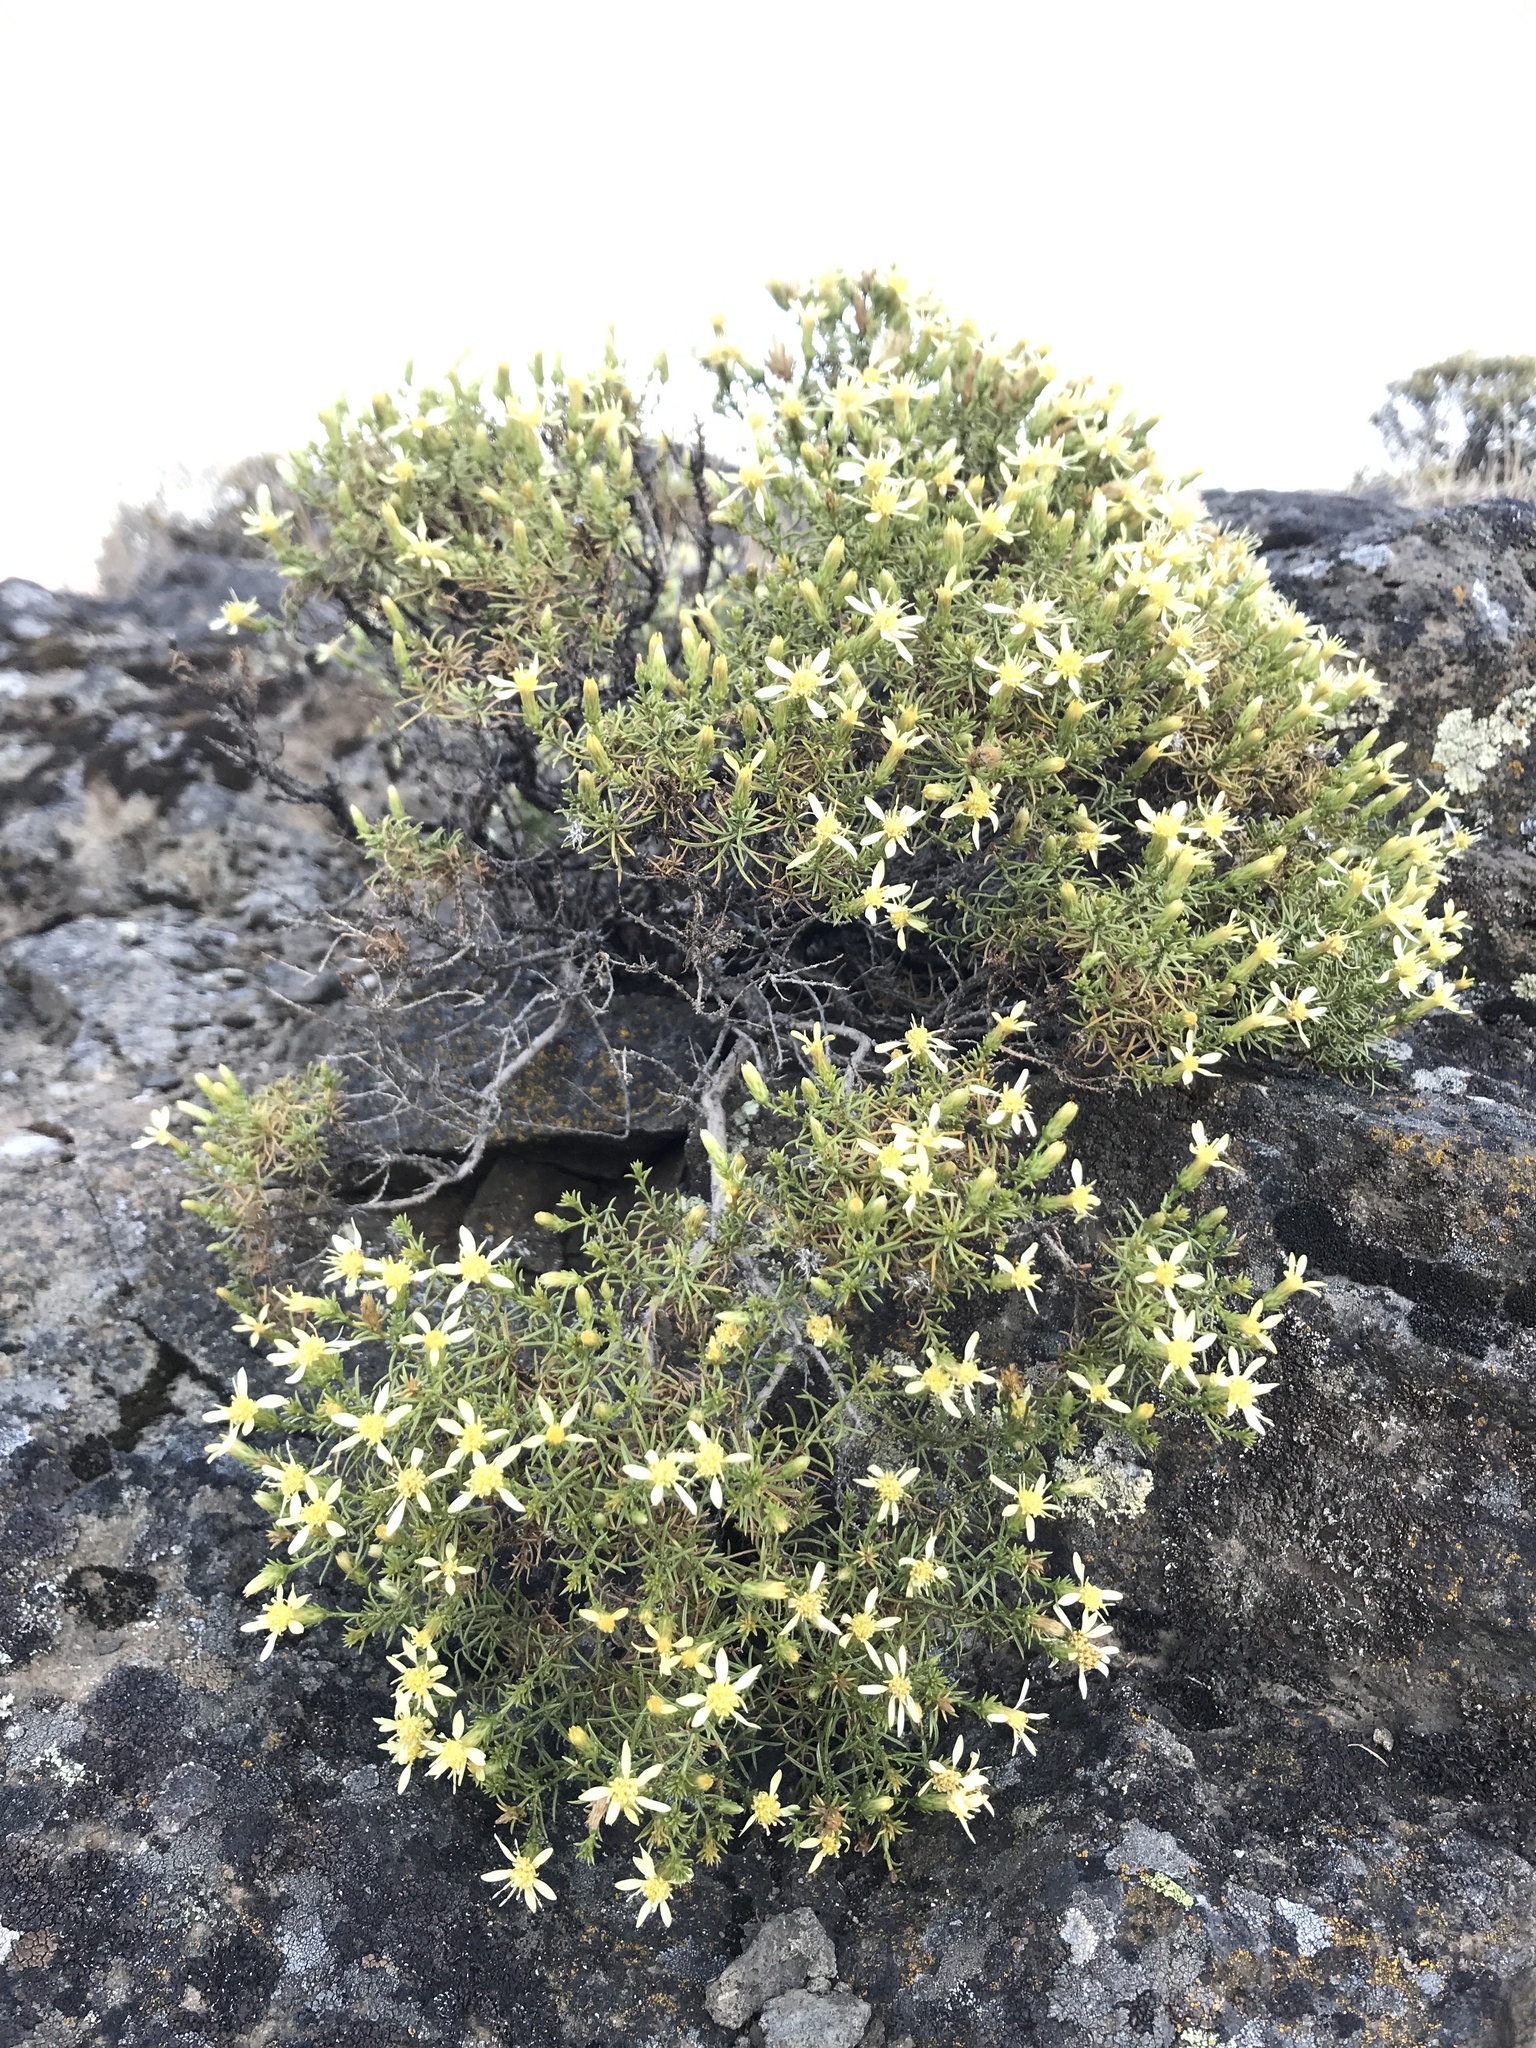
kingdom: Plantae
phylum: Tracheophyta
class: Magnoliopsida
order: Asterales
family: Asteraceae
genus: Ericameria
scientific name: Ericameria resinosa
